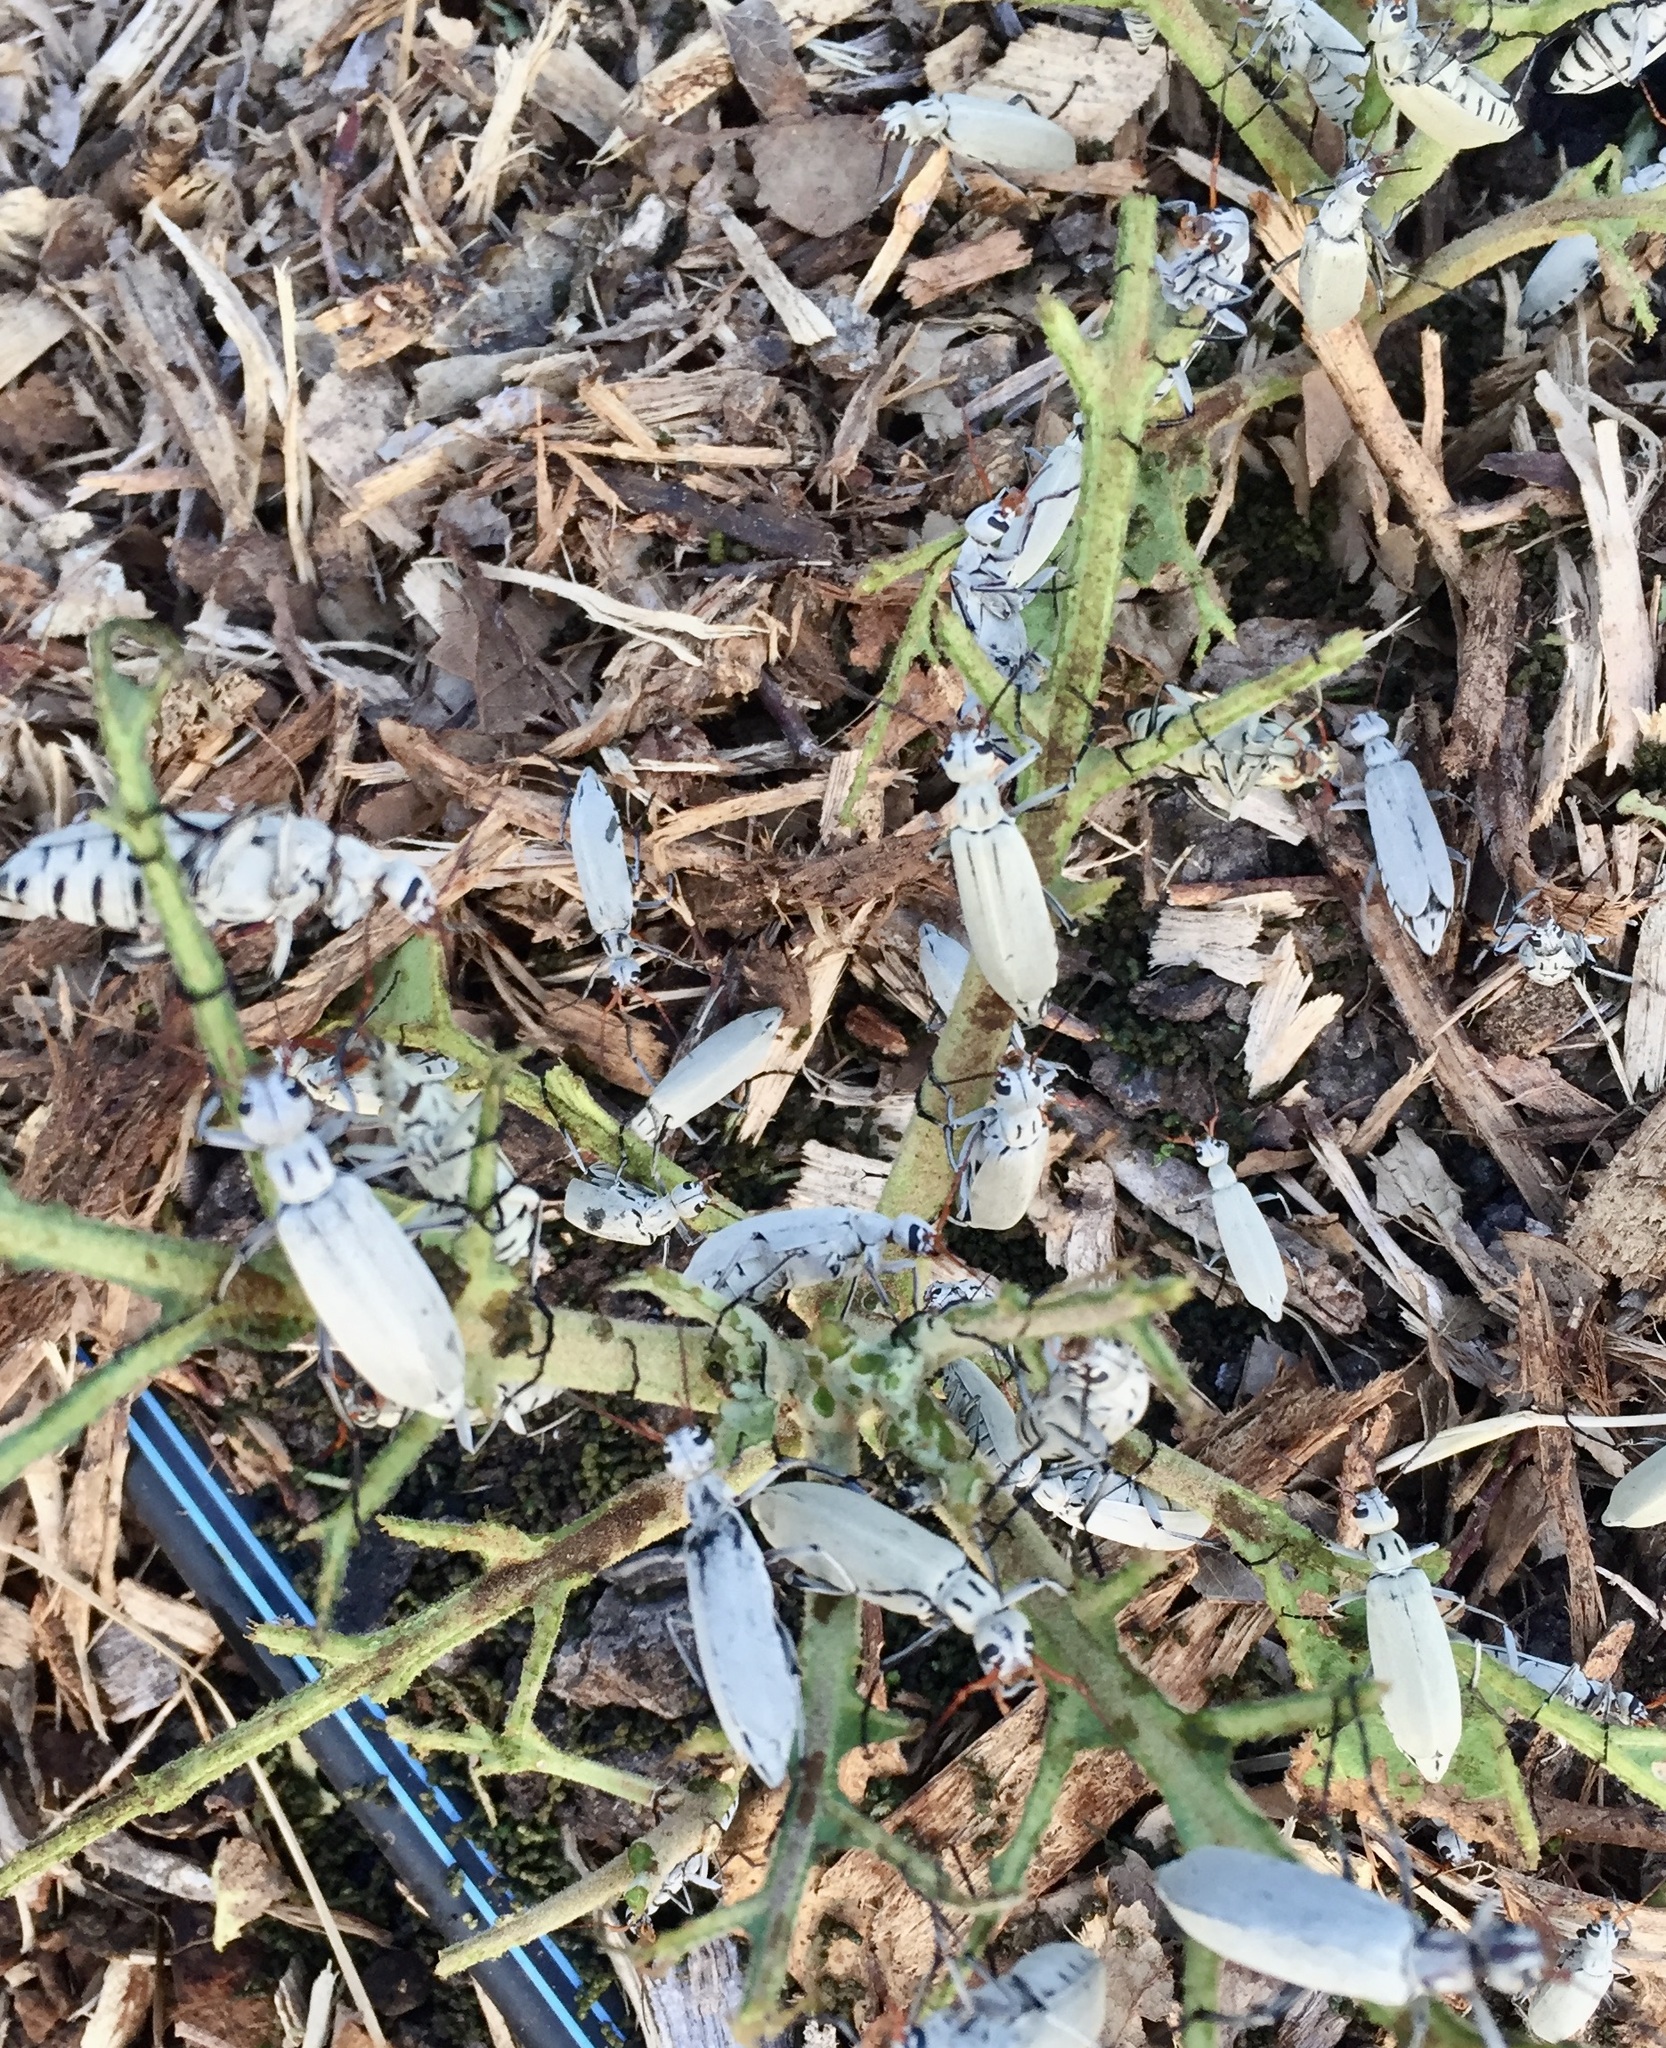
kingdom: Animalia
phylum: Arthropoda
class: Insecta
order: Coleoptera
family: Meloidae
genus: Epicauta
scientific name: Epicauta albida
